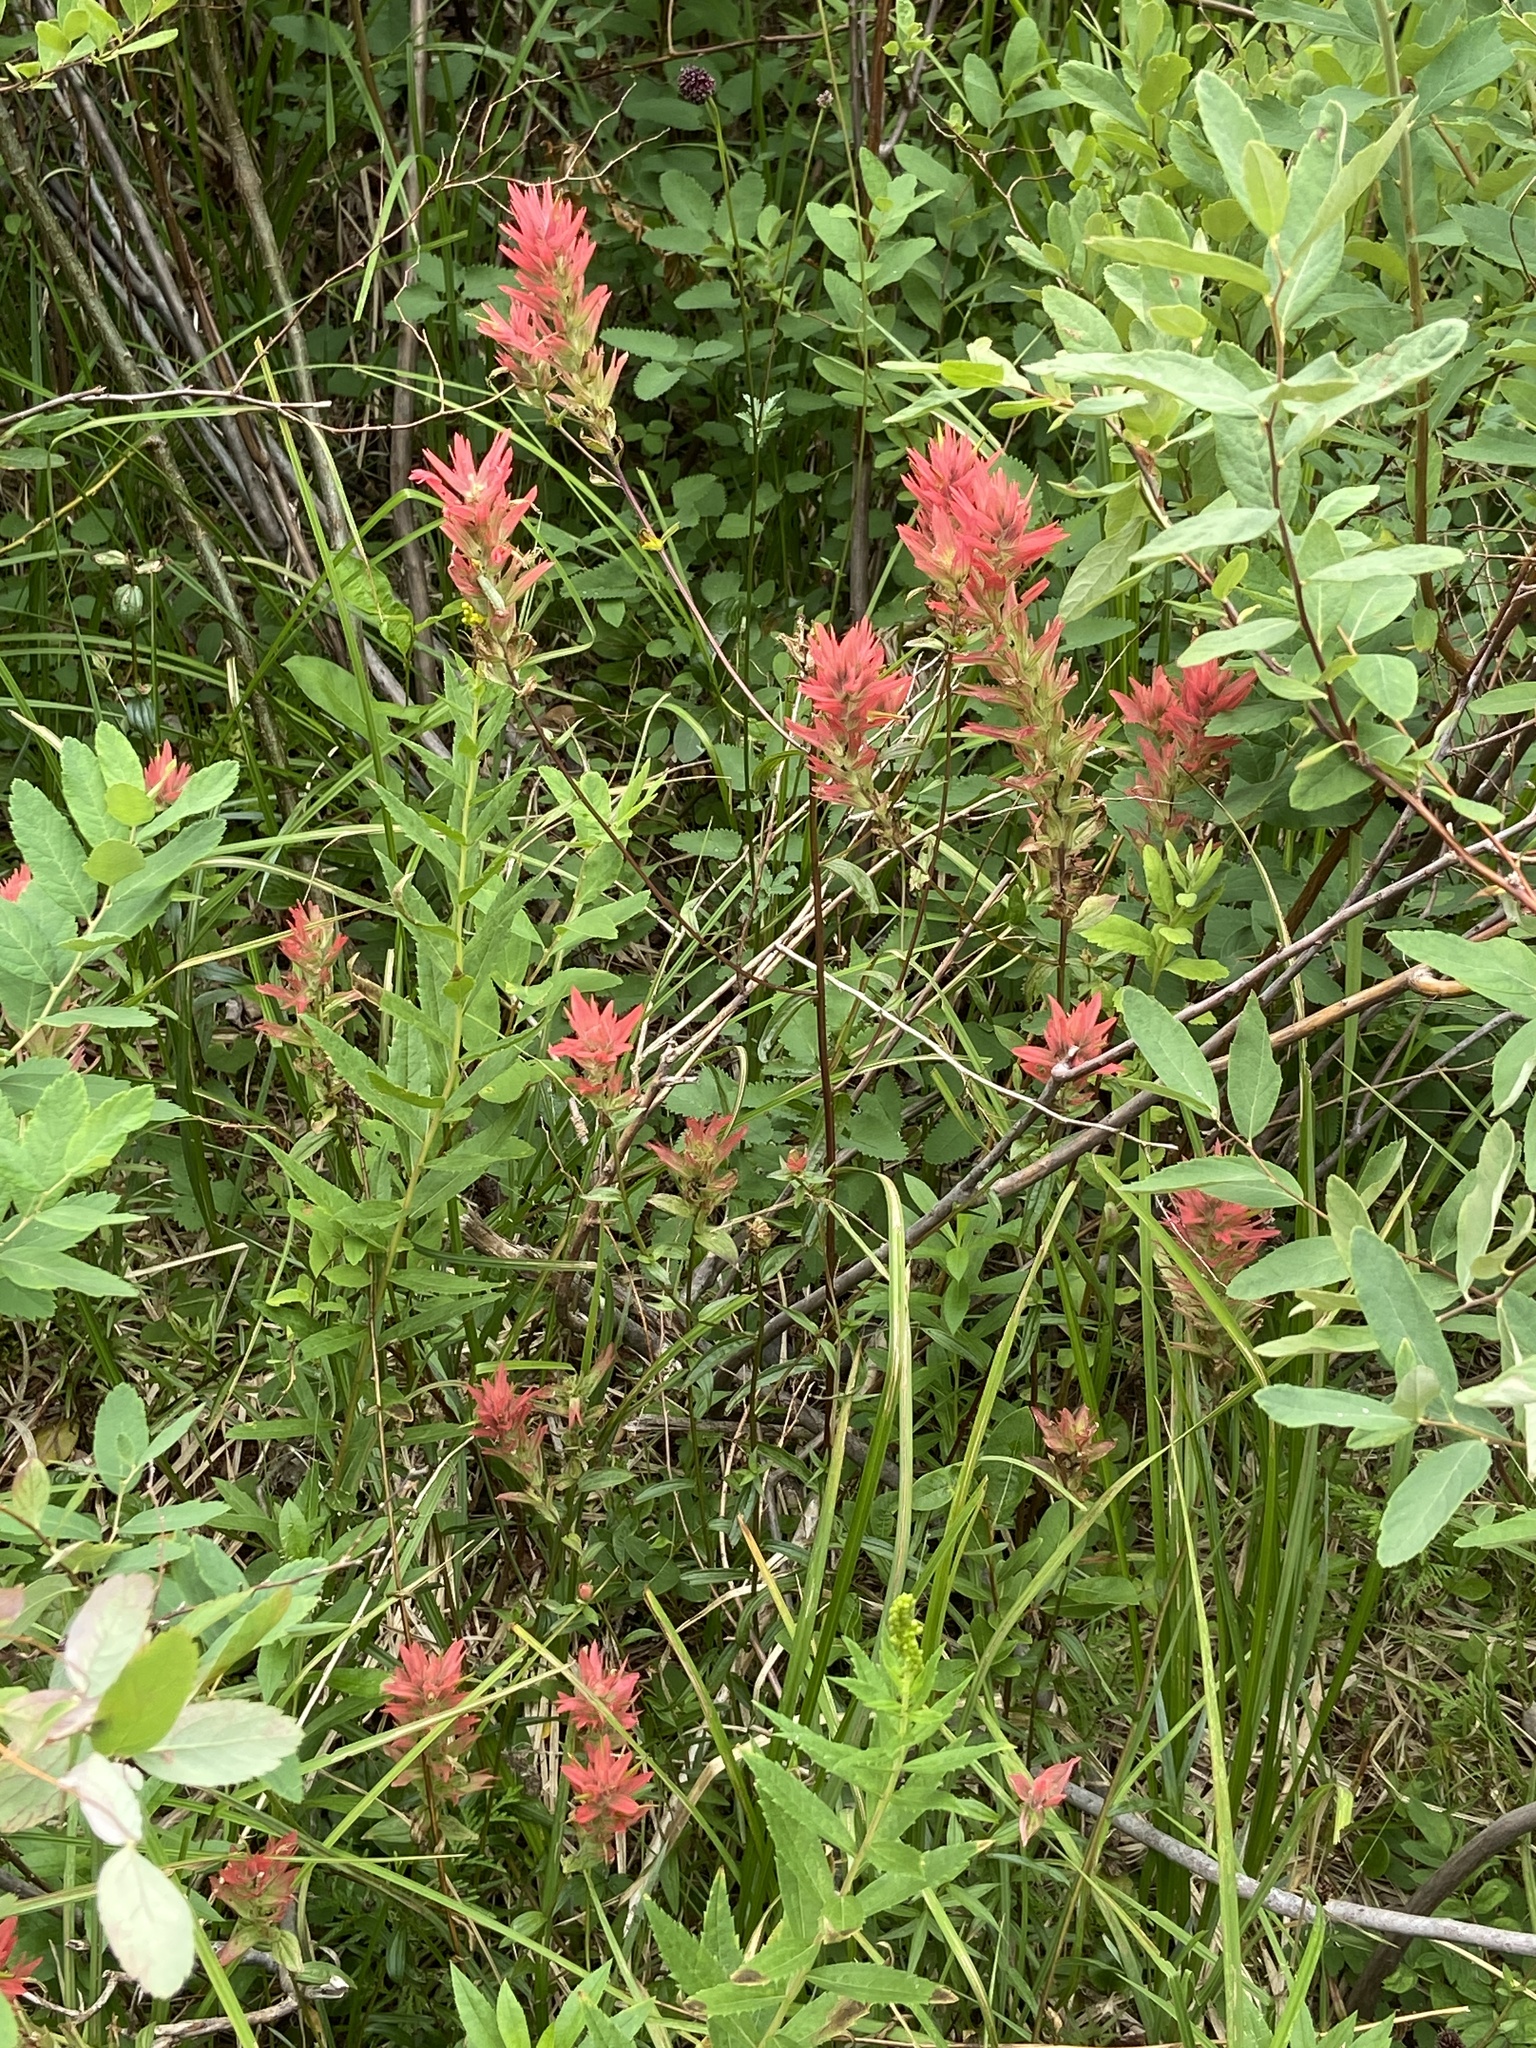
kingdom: Plantae
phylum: Tracheophyta
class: Magnoliopsida
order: Lamiales
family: Orobanchaceae
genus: Castilleja
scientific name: Castilleja miniata
